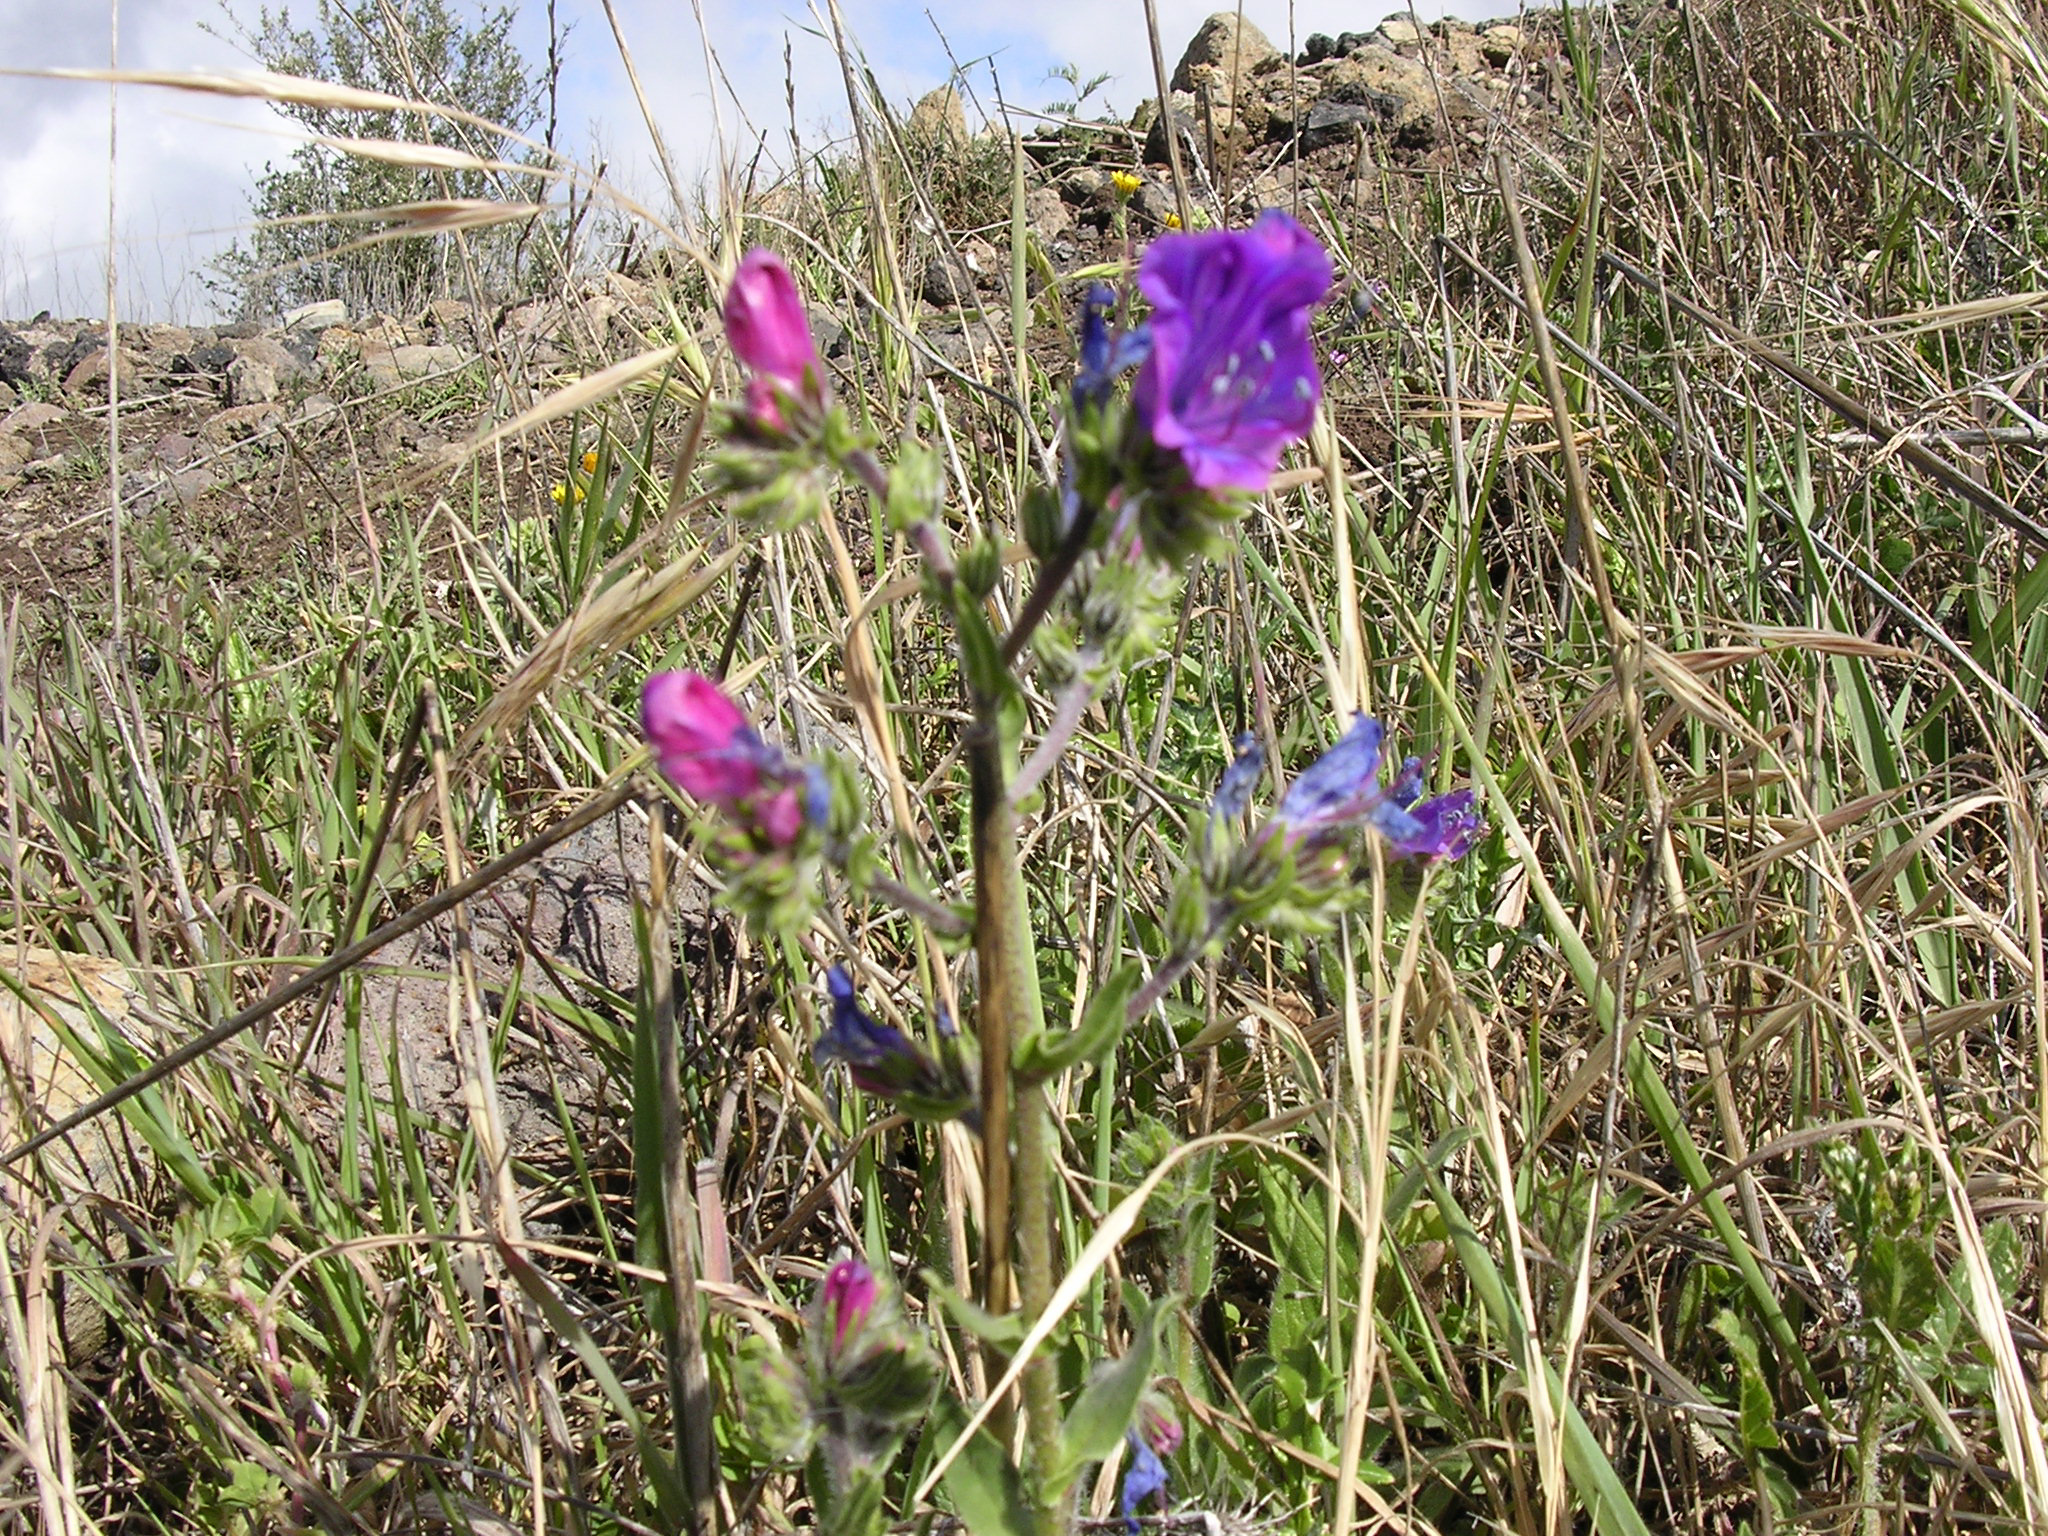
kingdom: Plantae
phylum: Tracheophyta
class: Magnoliopsida
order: Boraginales
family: Boraginaceae
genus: Echium
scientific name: Echium plantagineum
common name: Purple viper's-bugloss
